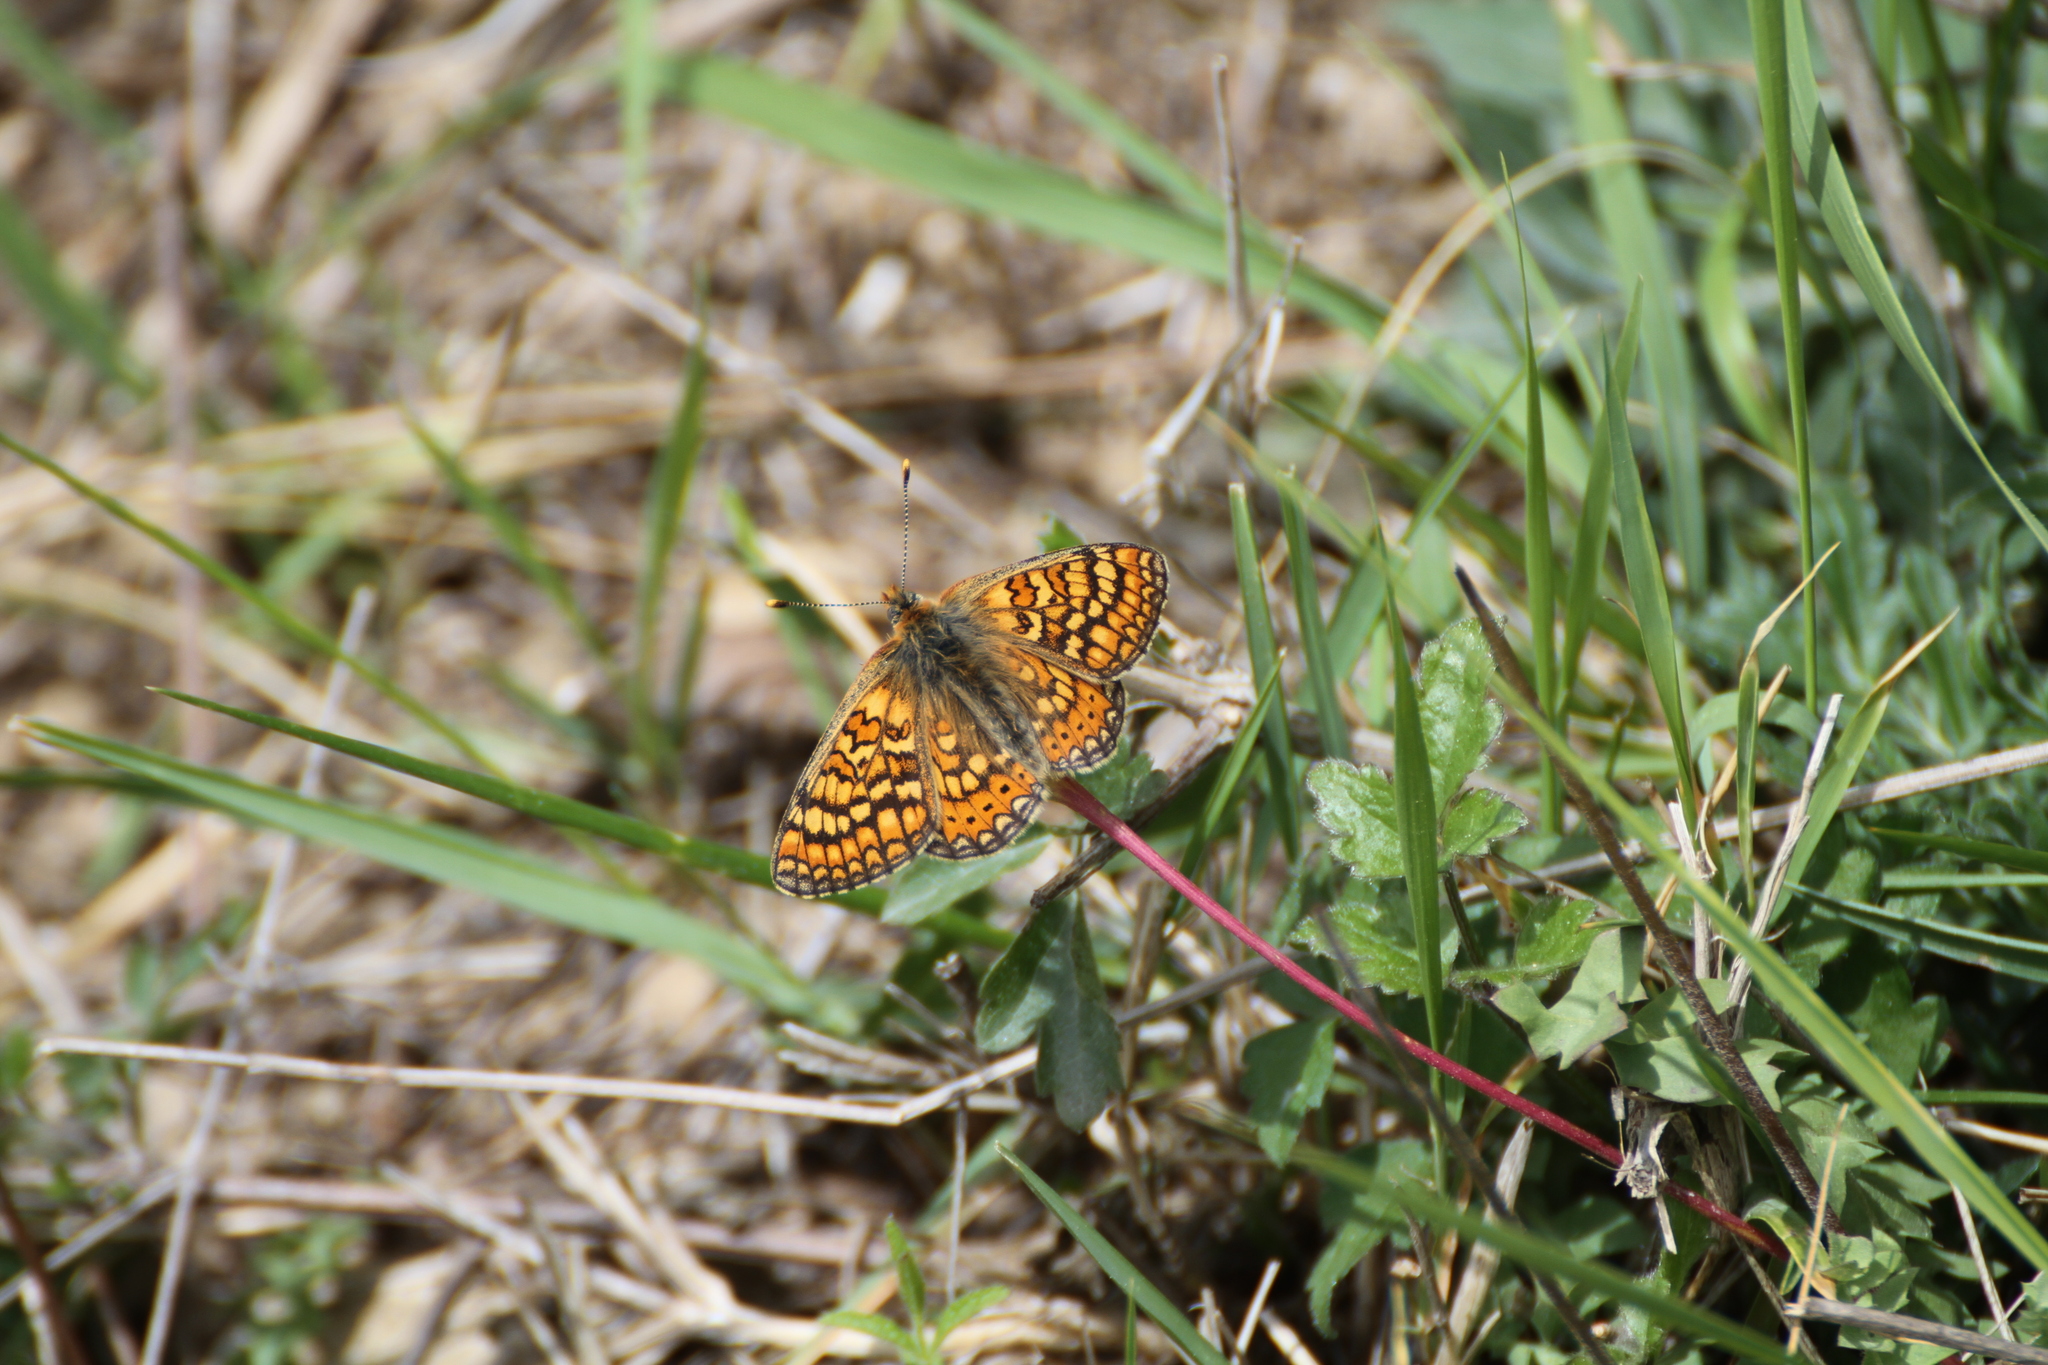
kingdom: Animalia
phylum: Arthropoda
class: Insecta
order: Lepidoptera
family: Nymphalidae
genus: Euphydryas
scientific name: Euphydryas aurinia
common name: Marsh fritillary
